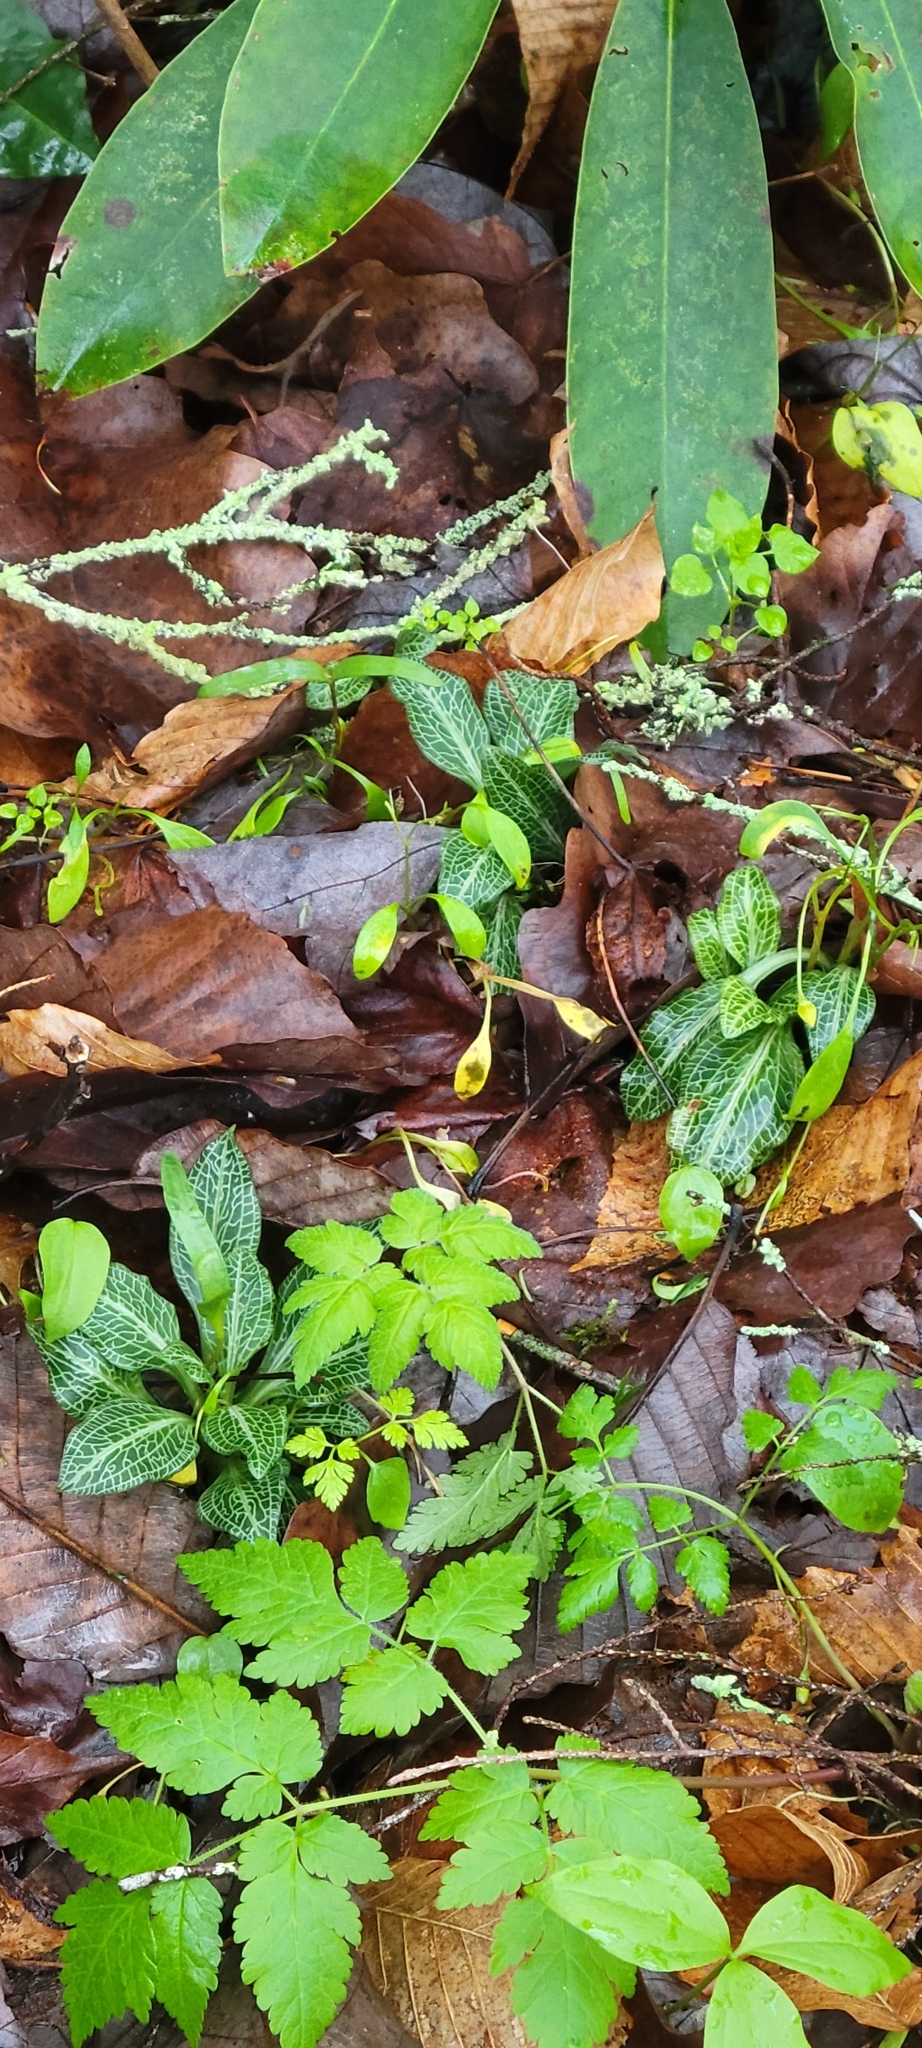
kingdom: Plantae
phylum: Tracheophyta
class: Liliopsida
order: Asparagales
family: Orchidaceae
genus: Goodyera
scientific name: Goodyera pubescens
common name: Downy rattlesnake-plantain
